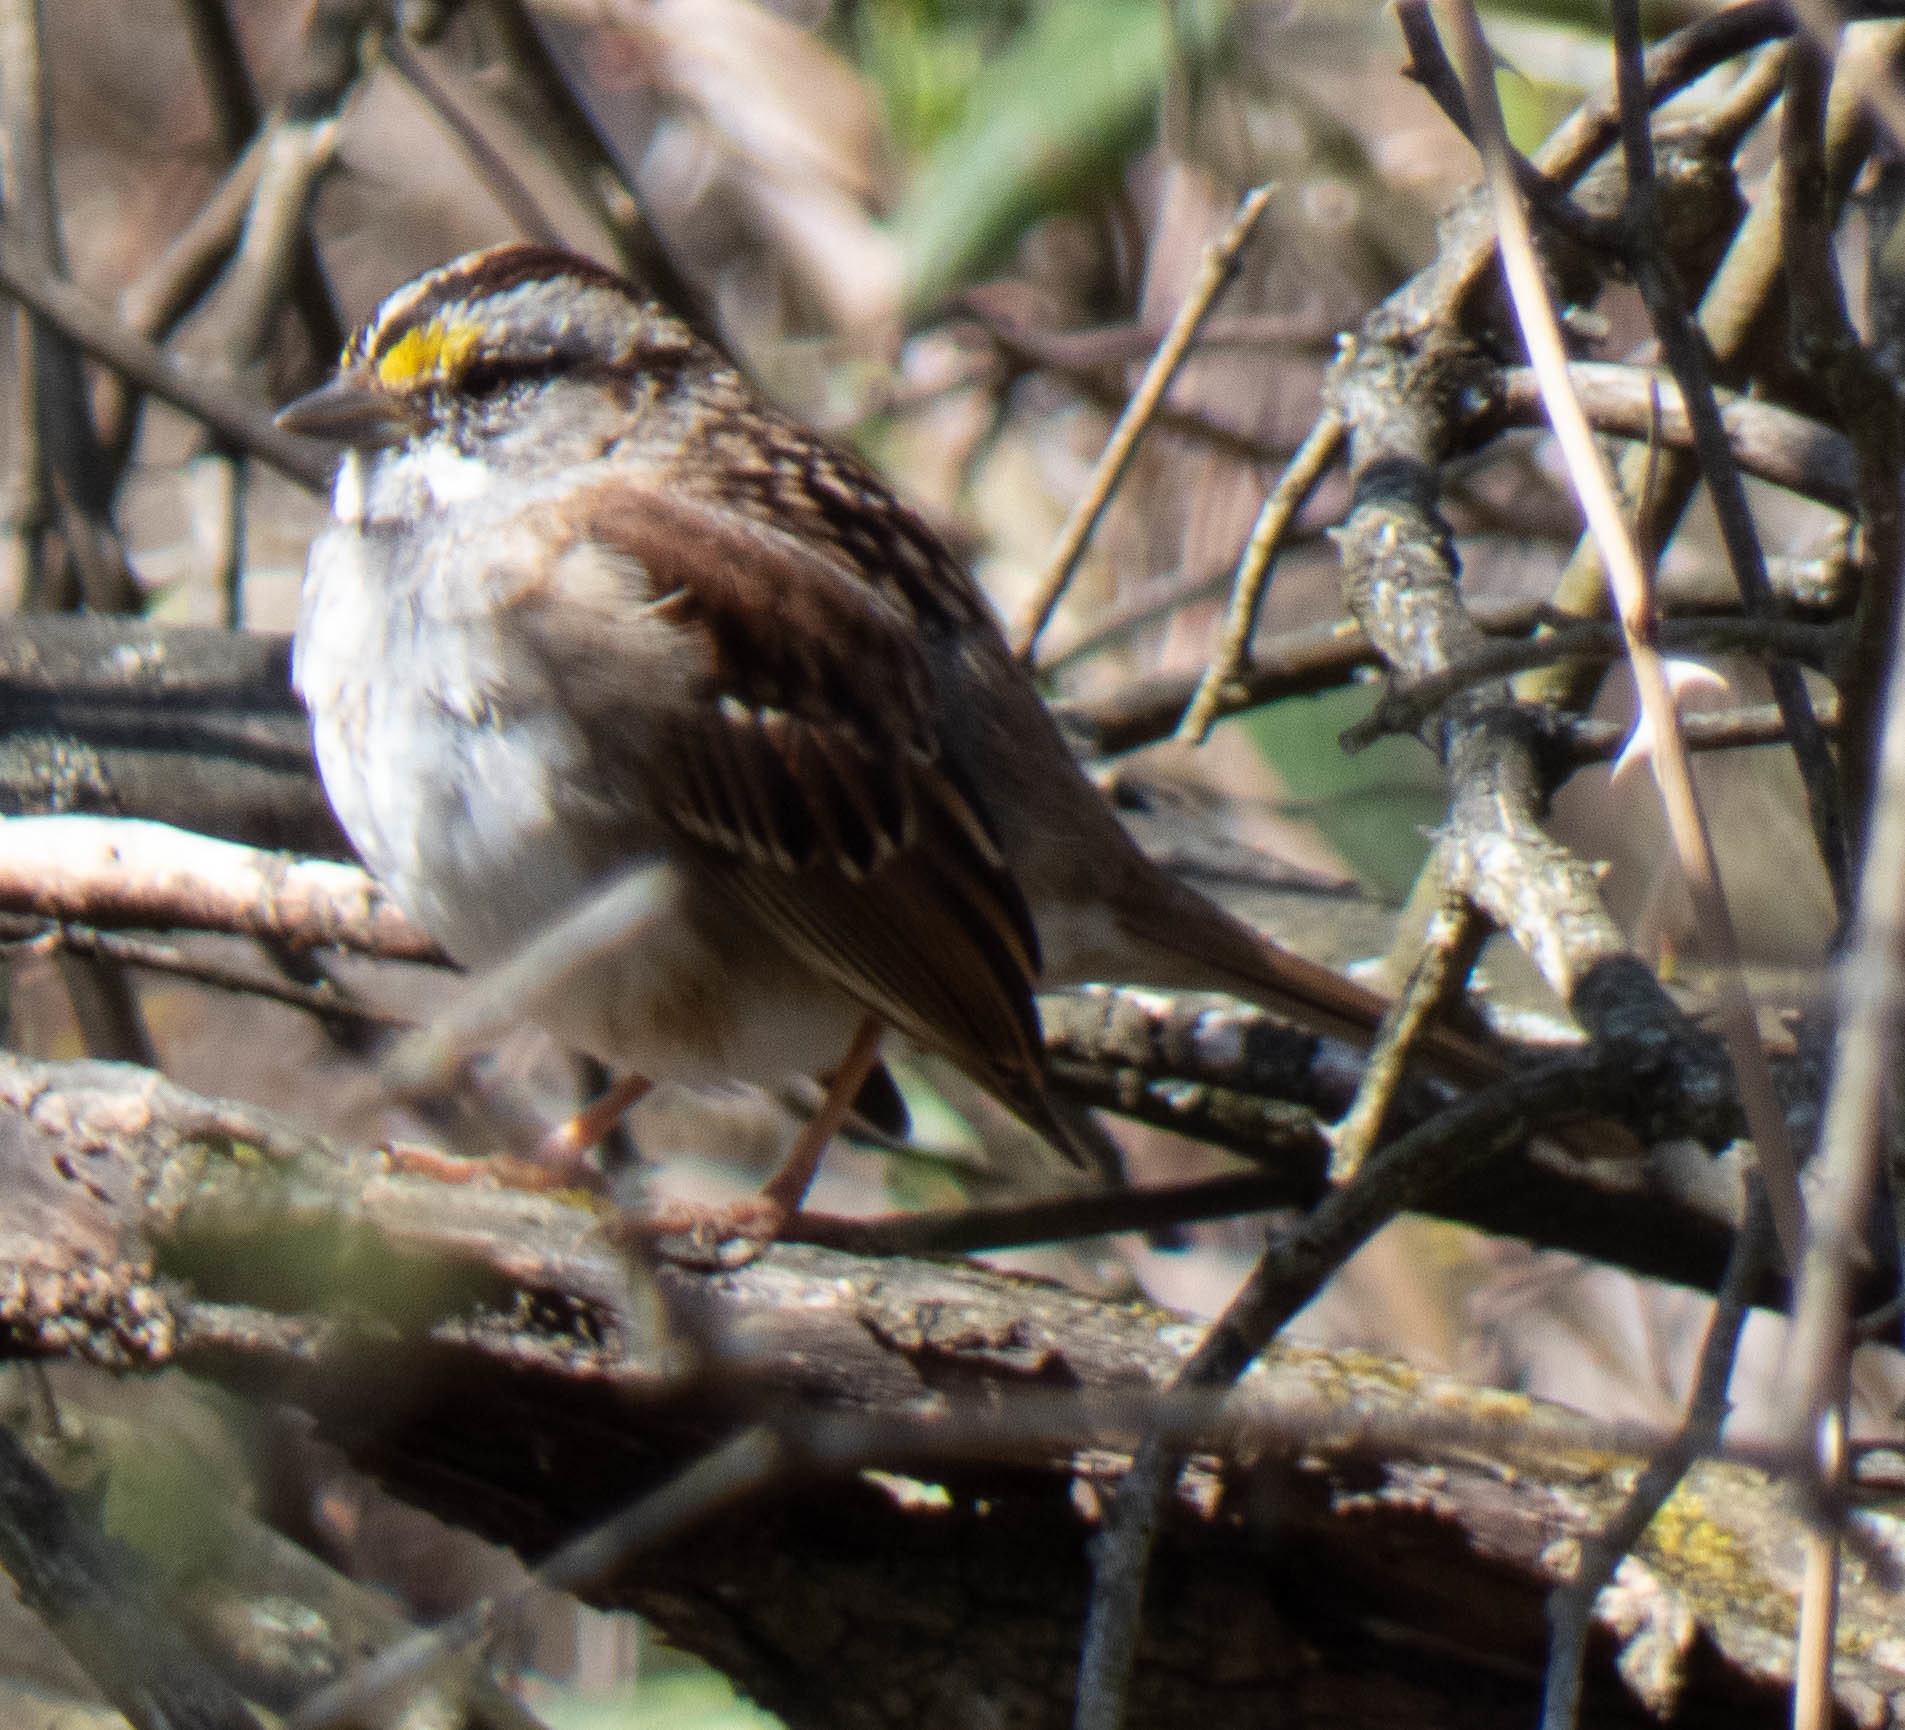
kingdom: Animalia
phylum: Chordata
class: Aves
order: Passeriformes
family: Passerellidae
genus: Zonotrichia
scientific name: Zonotrichia albicollis
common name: White-throated sparrow
